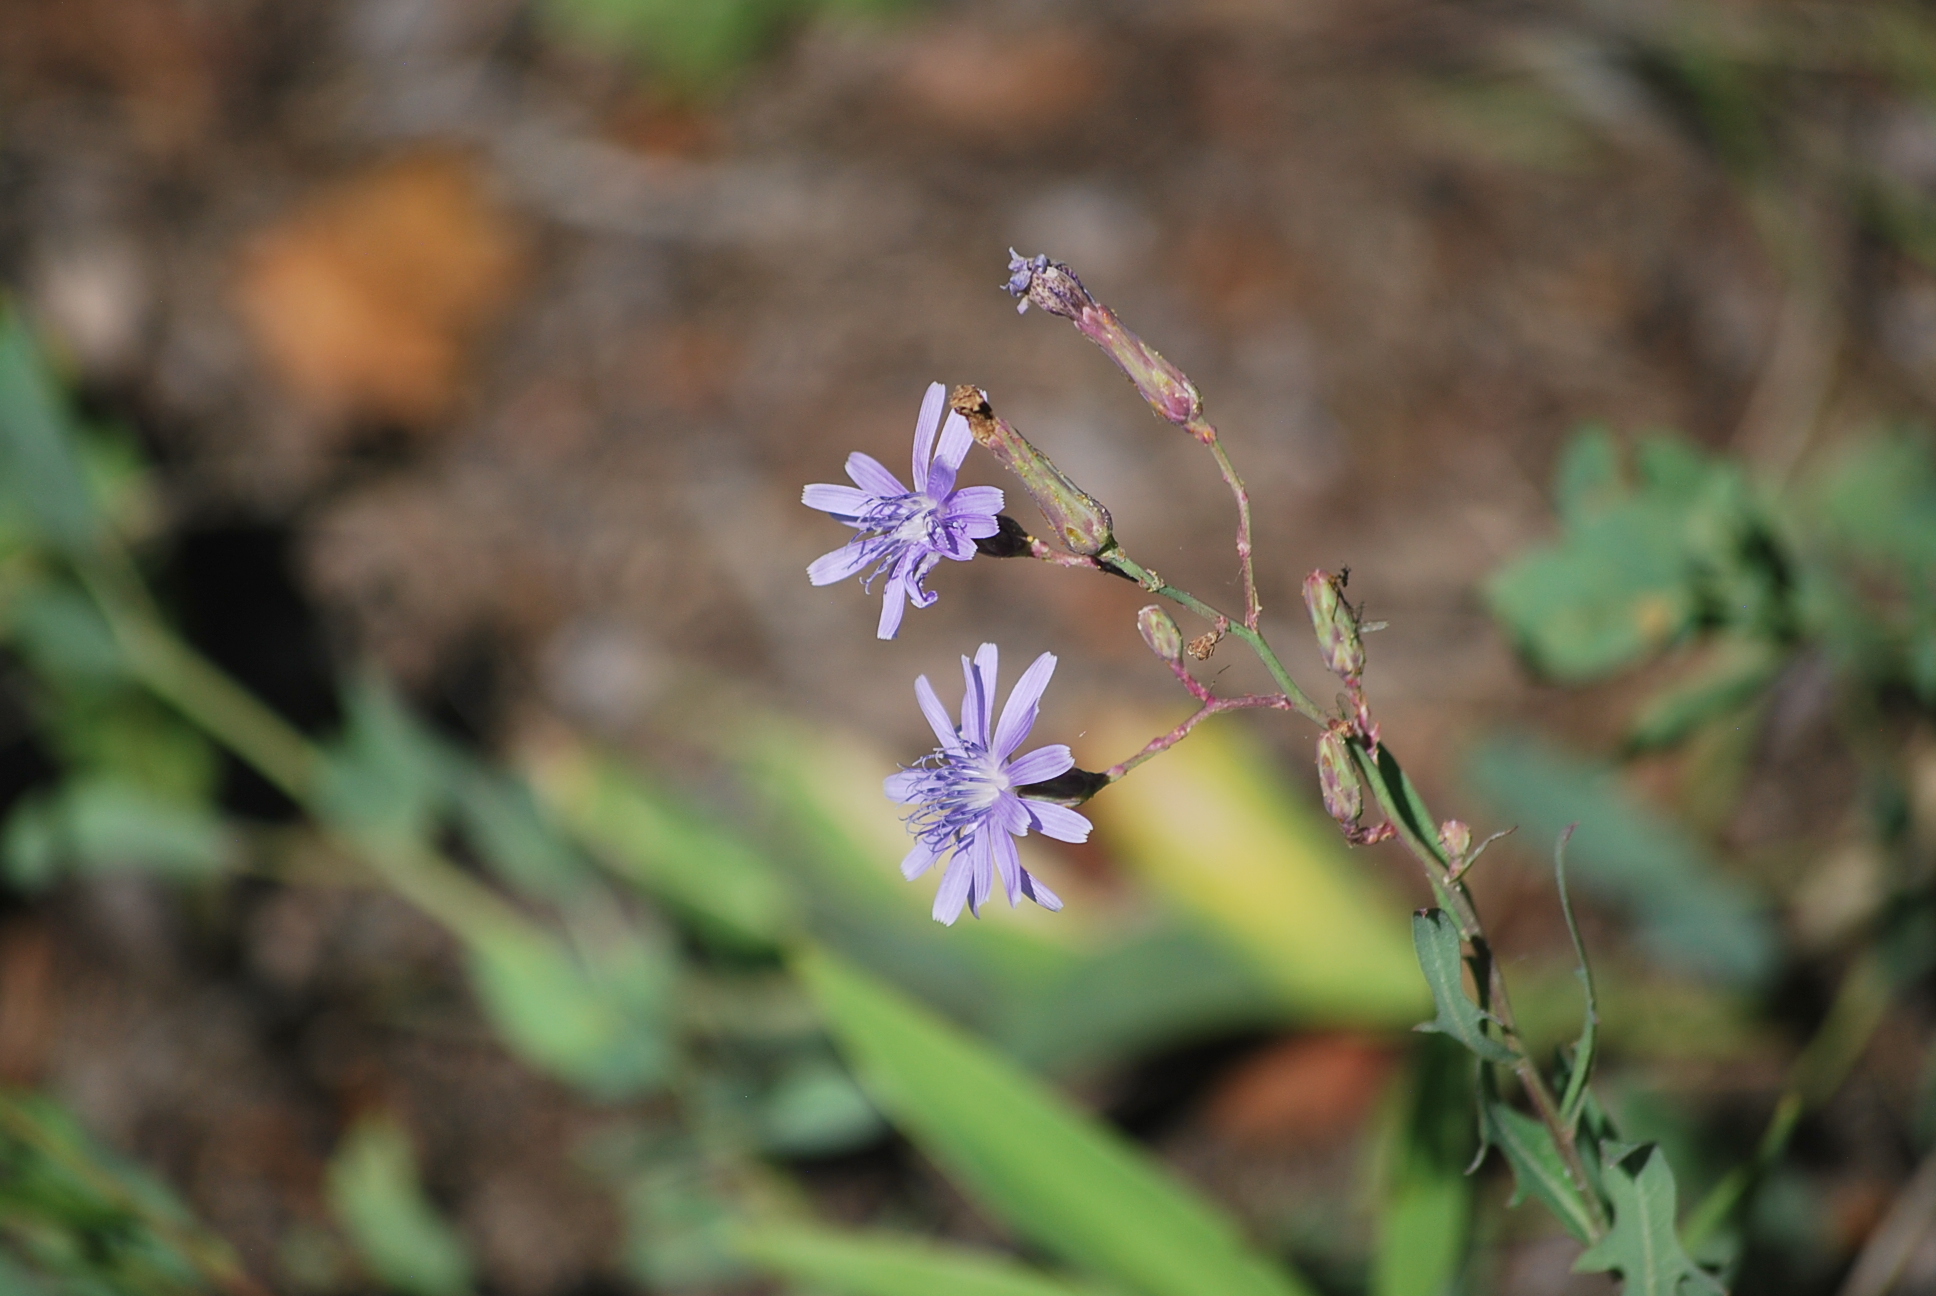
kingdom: Plantae
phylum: Tracheophyta
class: Magnoliopsida
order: Asterales
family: Asteraceae
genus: Lactuca
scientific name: Lactuca pulchella
